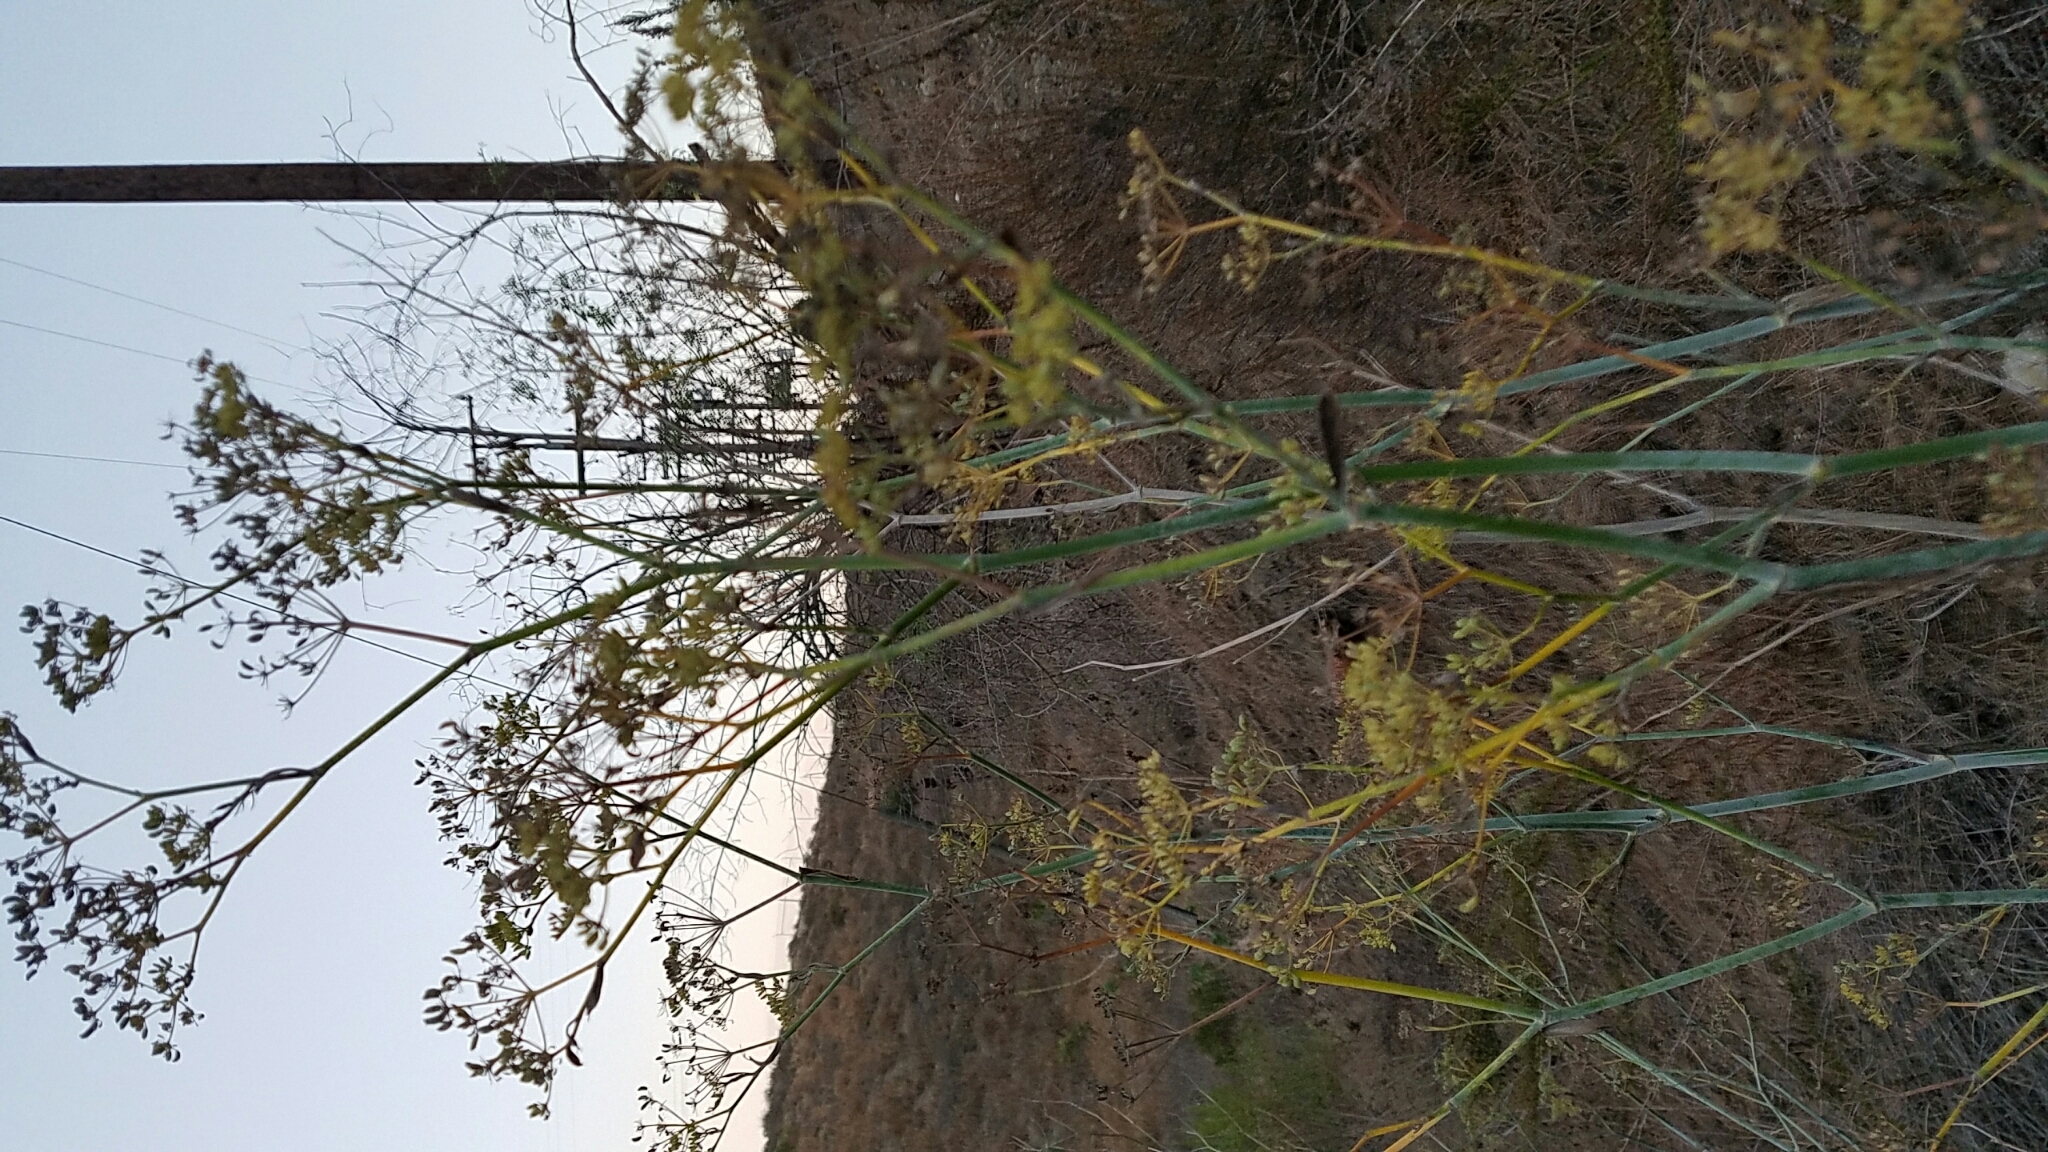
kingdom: Plantae
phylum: Tracheophyta
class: Magnoliopsida
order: Apiales
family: Apiaceae
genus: Foeniculum
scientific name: Foeniculum vulgare
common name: Fennel
